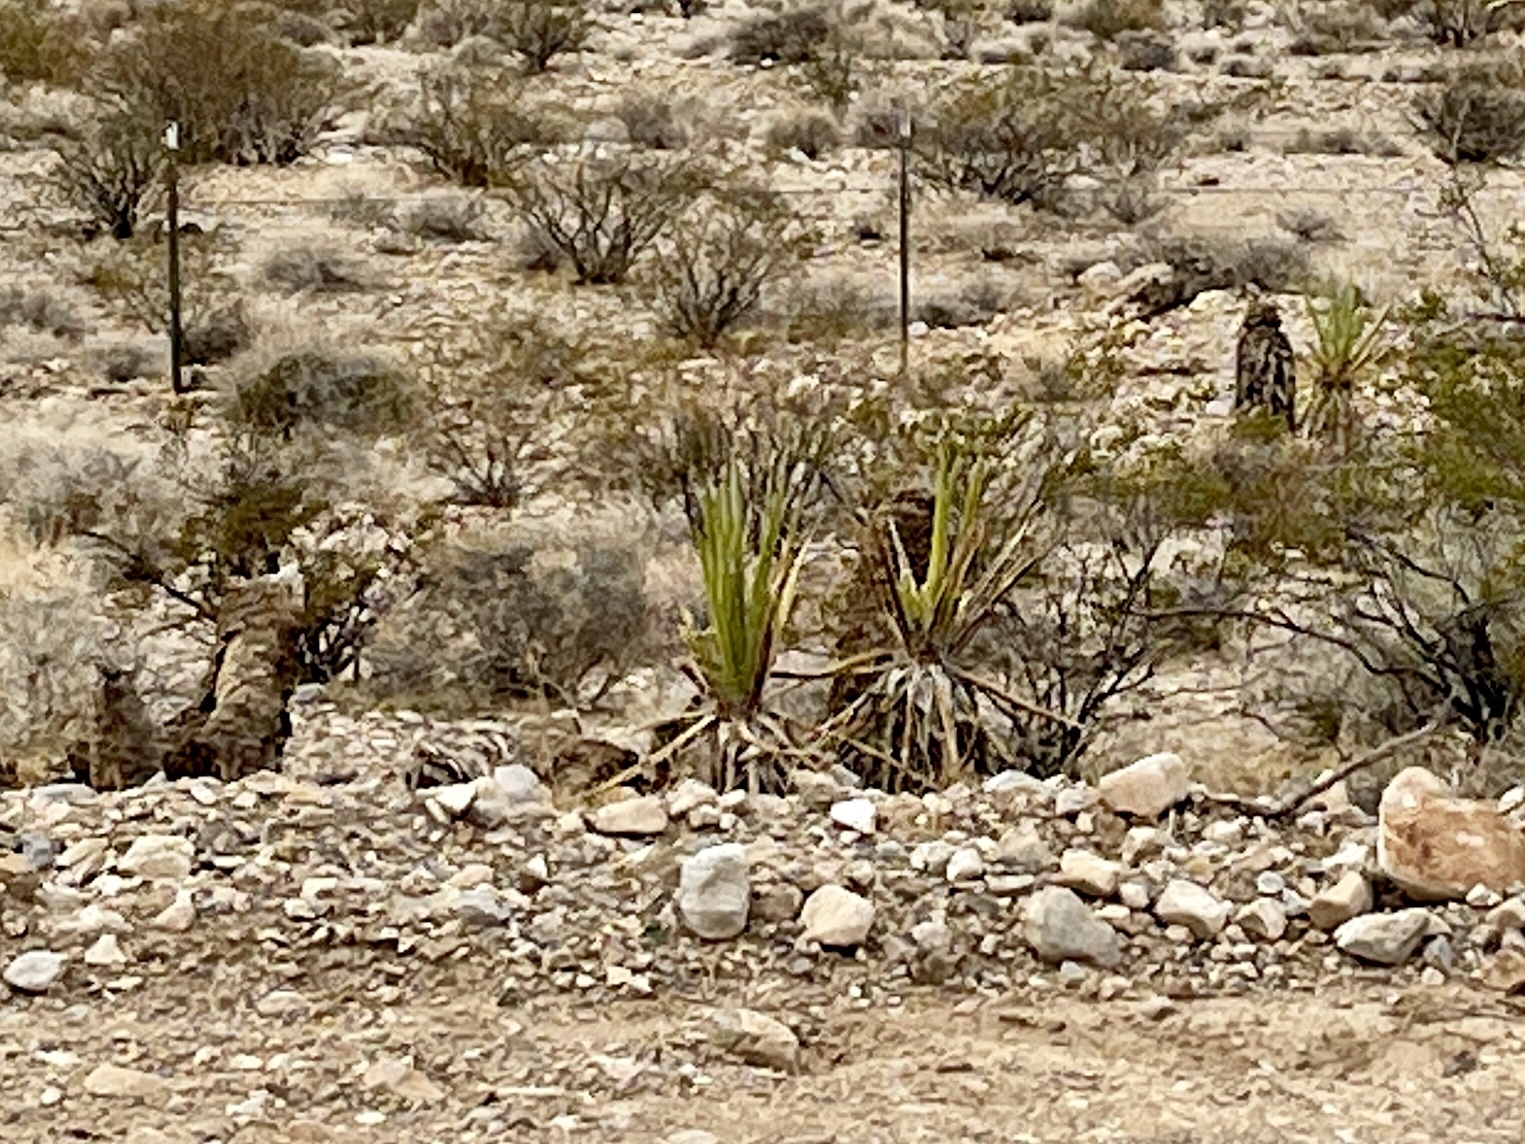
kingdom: Plantae
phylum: Tracheophyta
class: Liliopsida
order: Asparagales
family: Asparagaceae
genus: Yucca
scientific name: Yucca schidigera
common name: Mojave yucca
